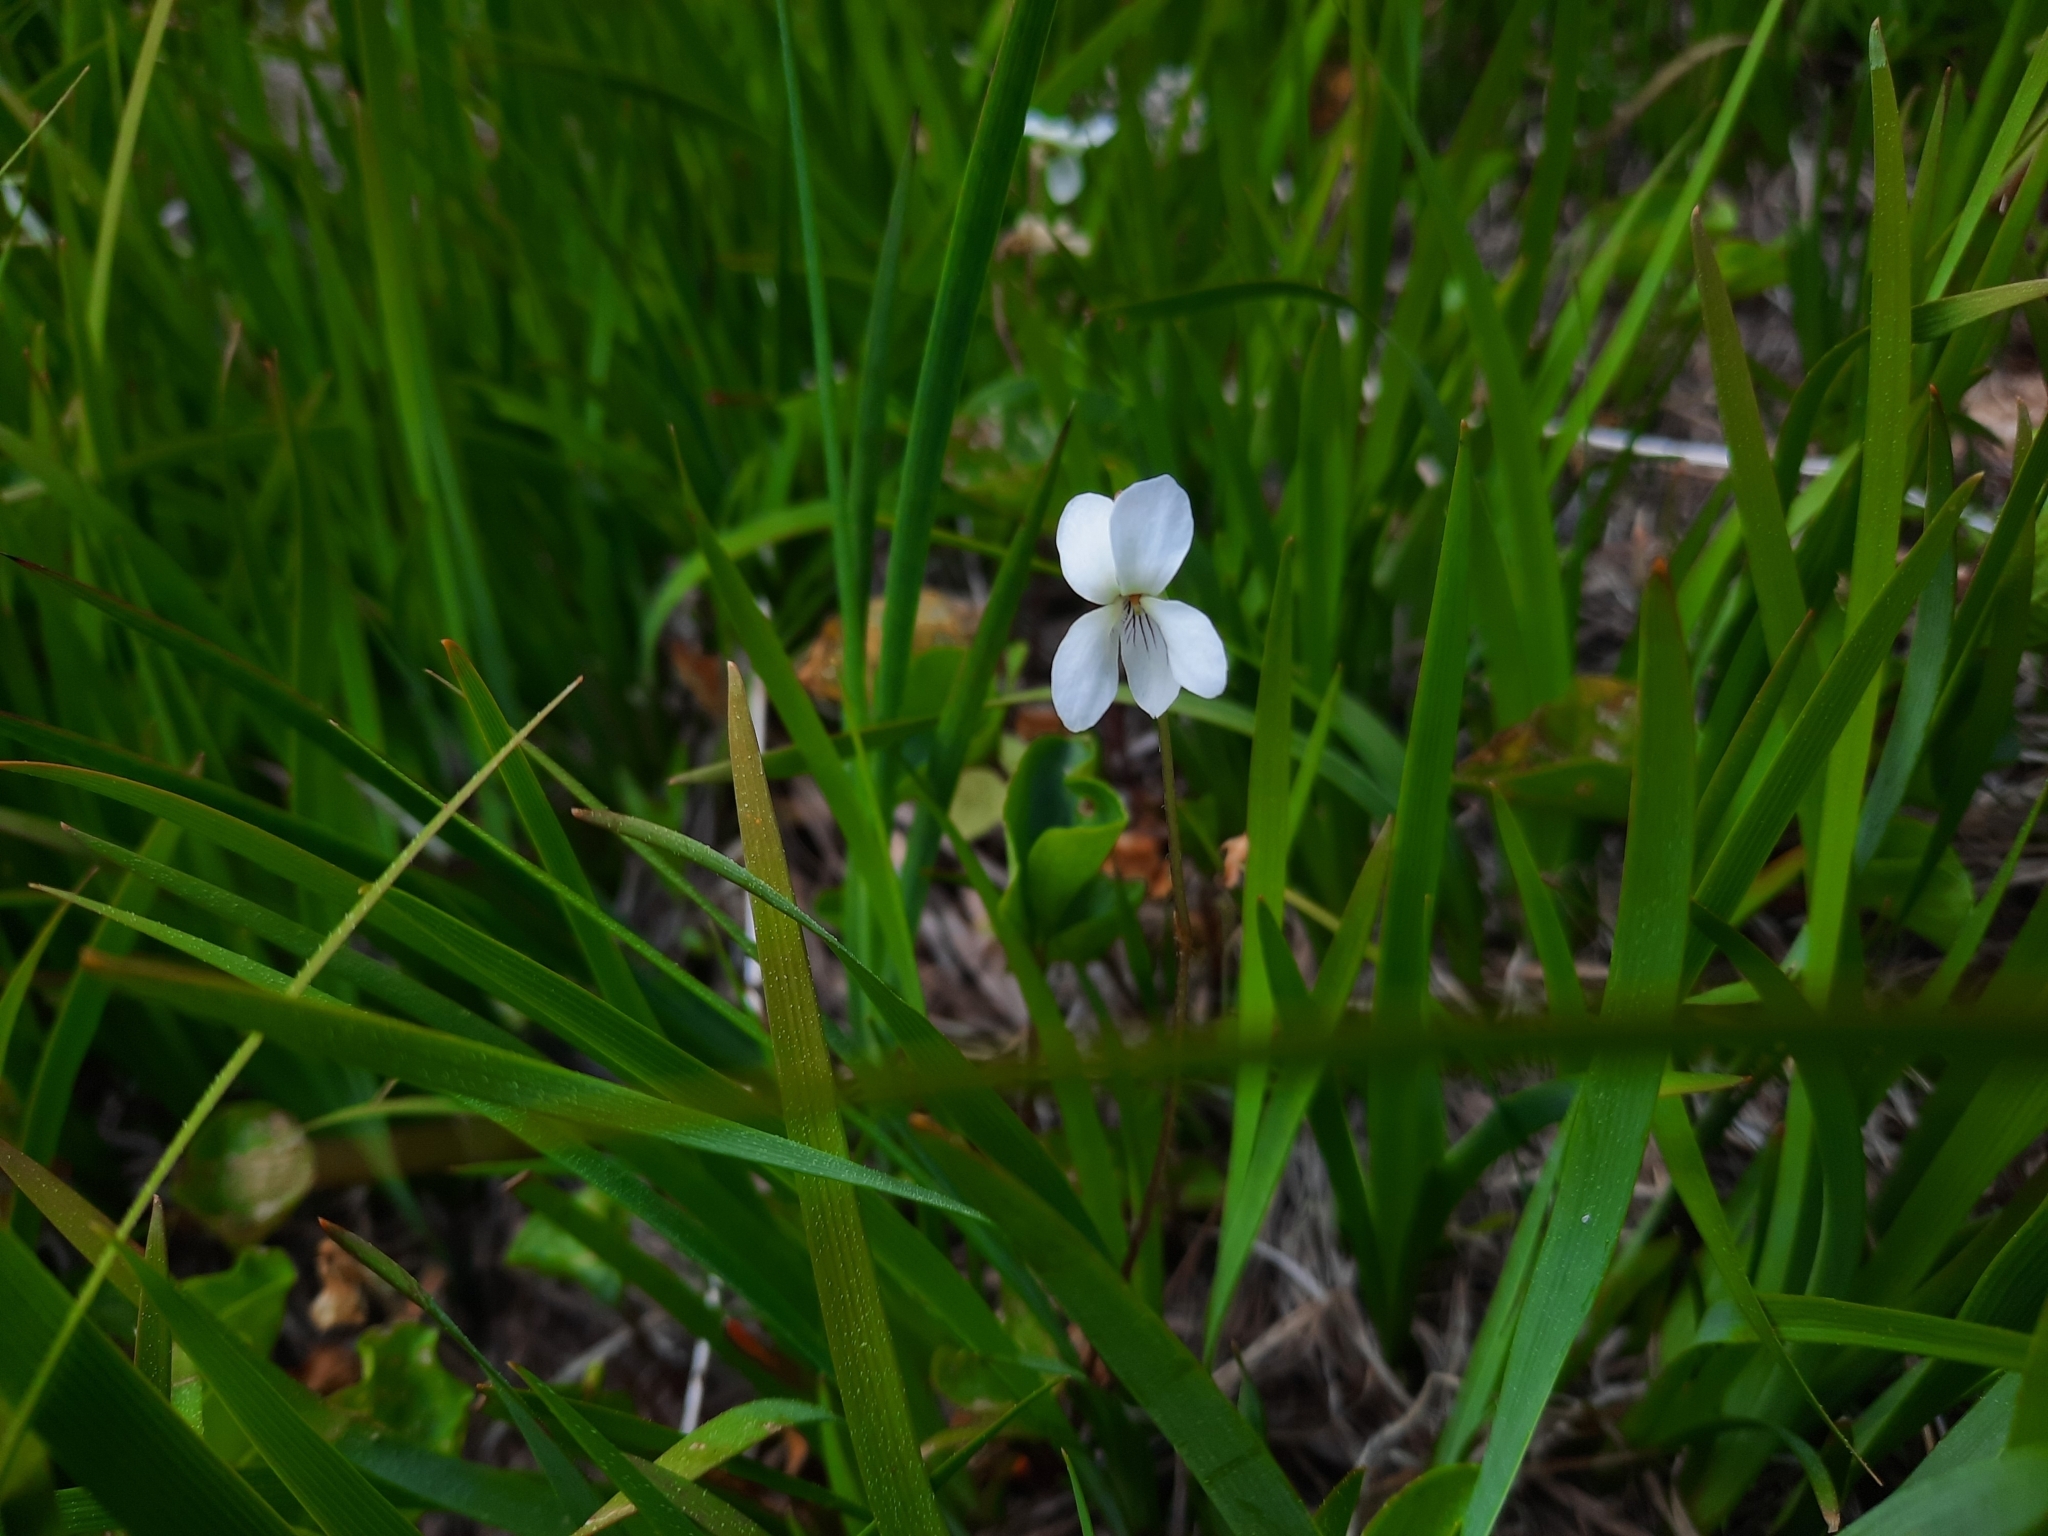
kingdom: Plantae
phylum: Tracheophyta
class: Magnoliopsida
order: Malpighiales
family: Violaceae
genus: Viola
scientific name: Viola macloskeyi
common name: Macloskey's violet
